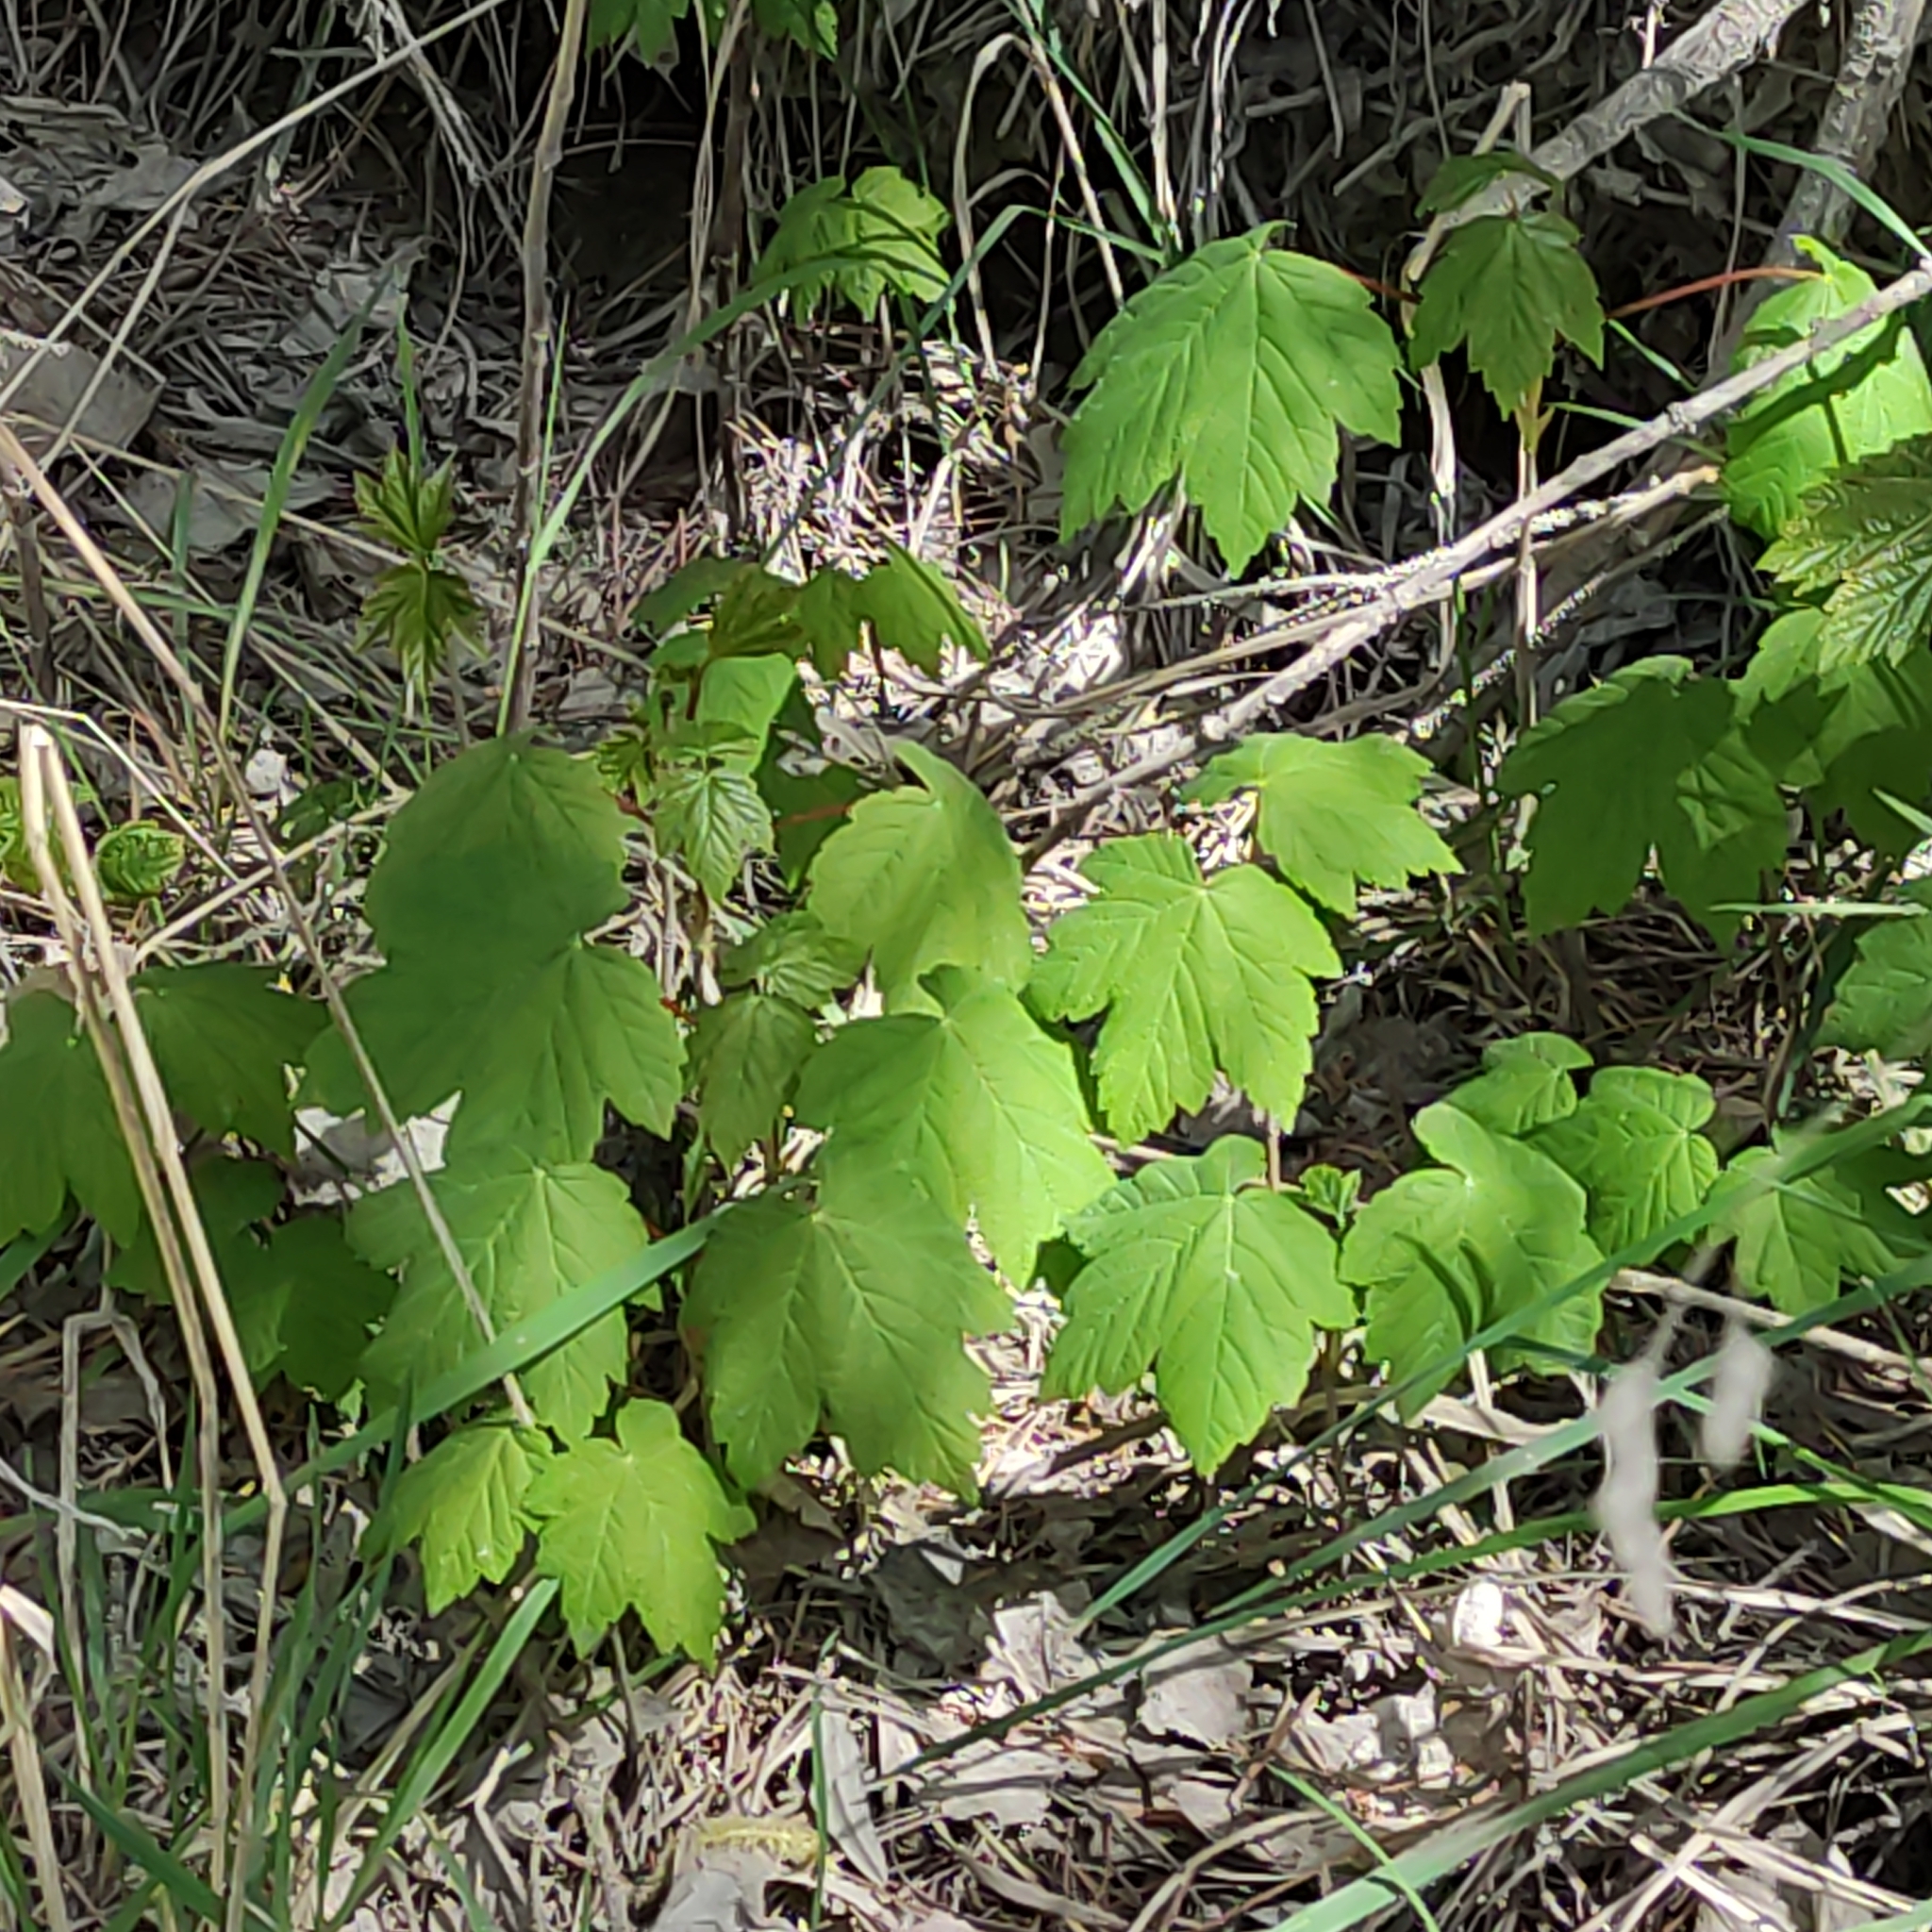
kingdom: Plantae
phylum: Tracheophyta
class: Magnoliopsida
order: Sapindales
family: Sapindaceae
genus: Acer
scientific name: Acer pseudoplatanus
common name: Sycamore
